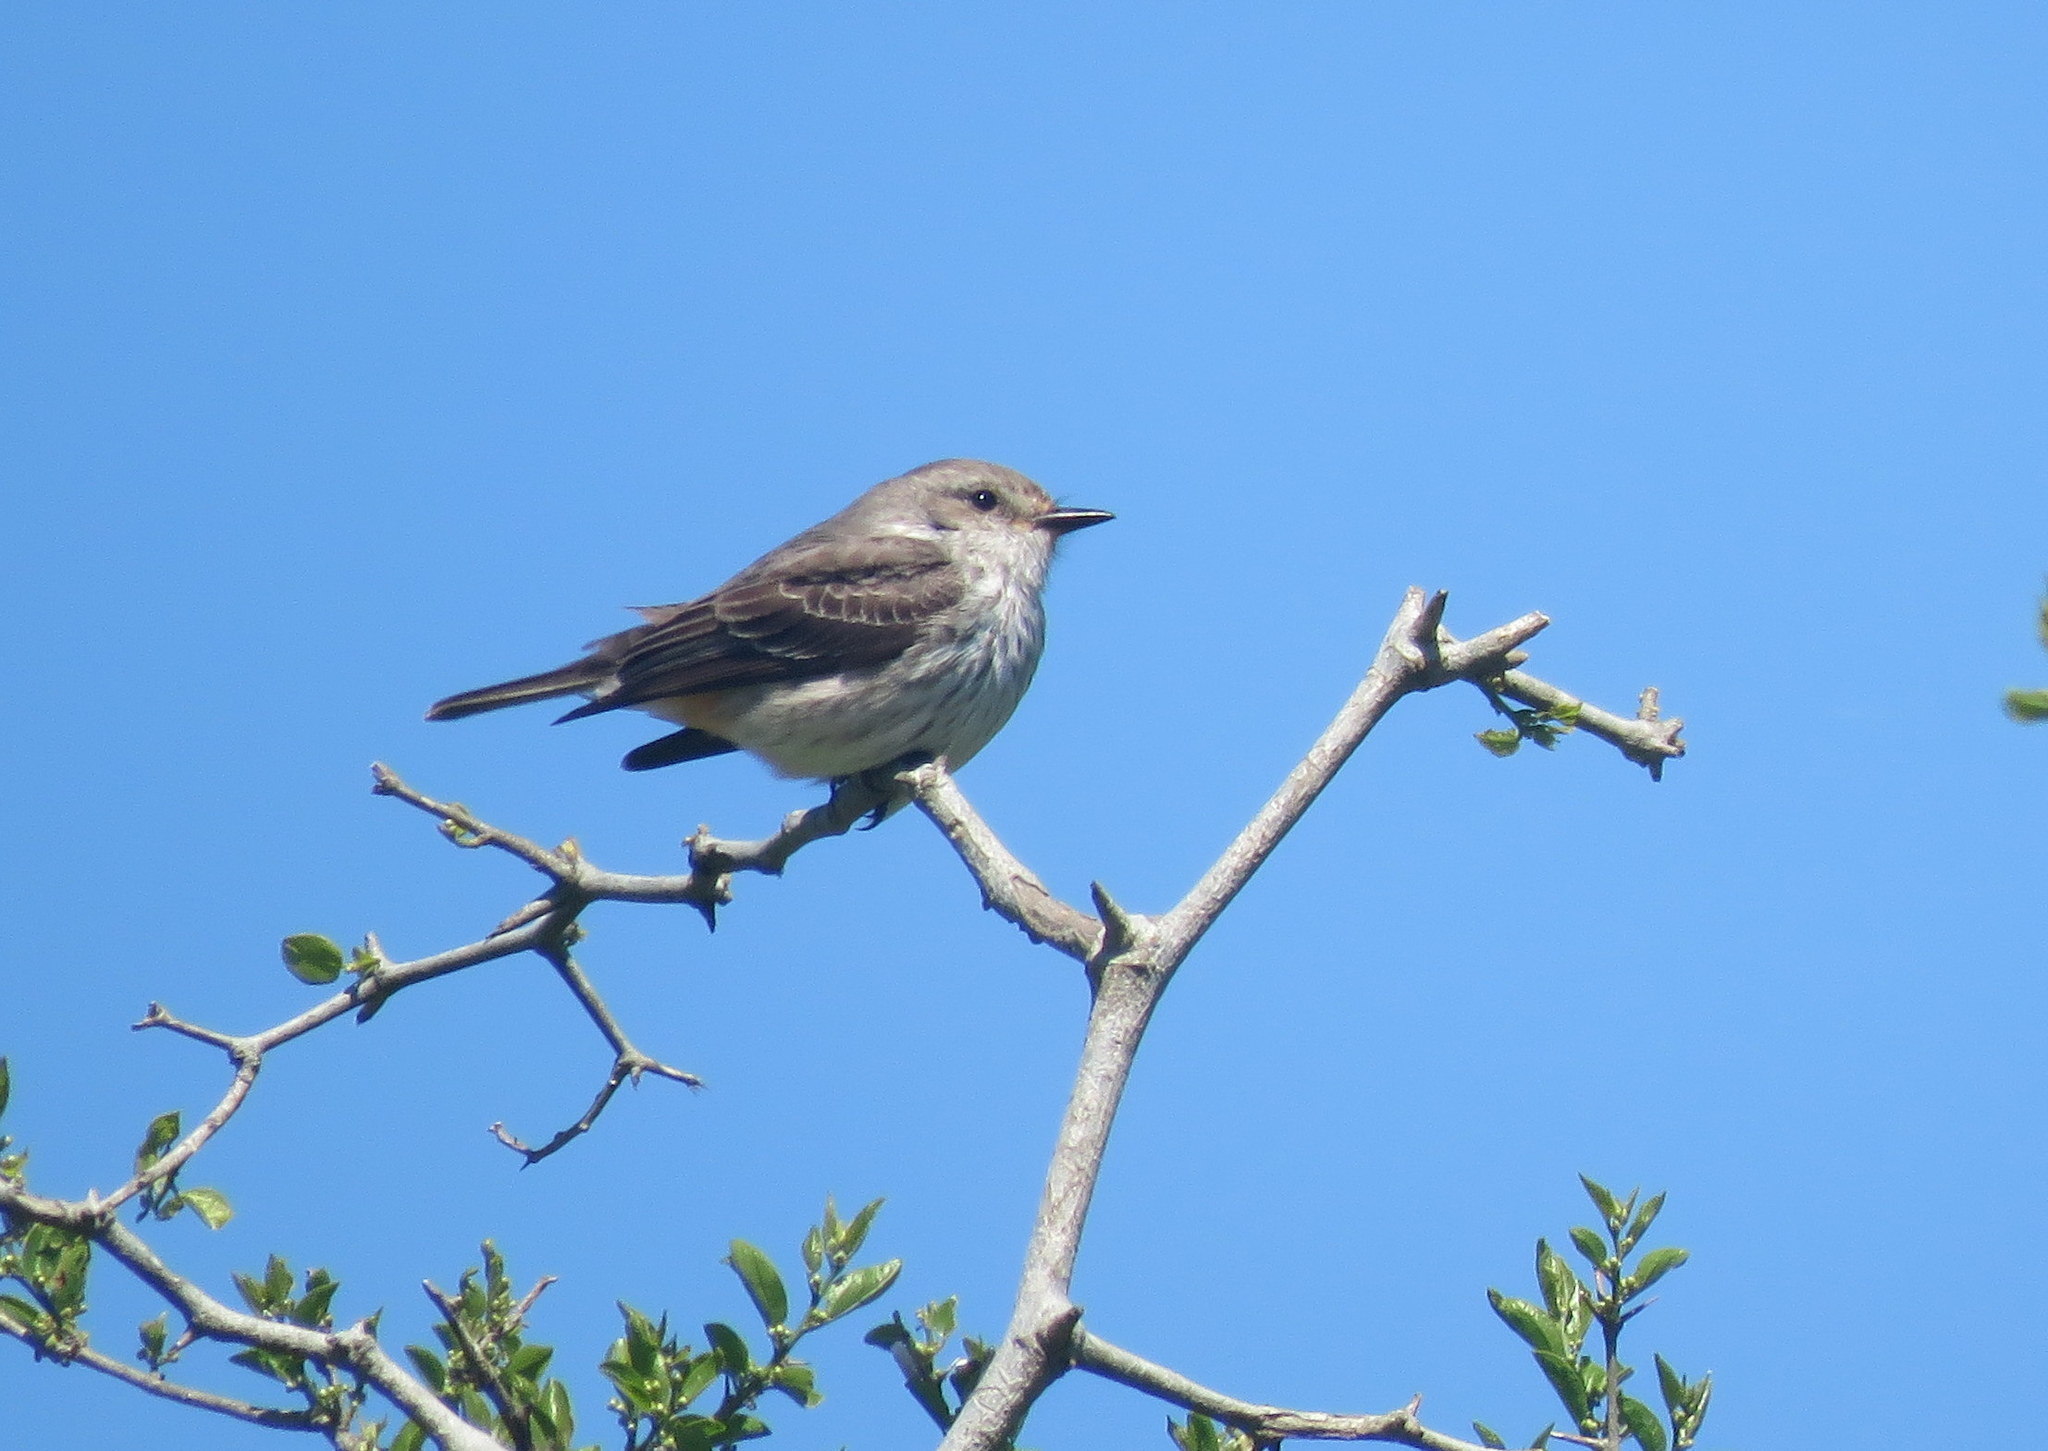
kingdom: Animalia
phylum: Chordata
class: Aves
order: Passeriformes
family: Tyrannidae
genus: Pyrocephalus
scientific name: Pyrocephalus rubinus
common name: Vermilion flycatcher
